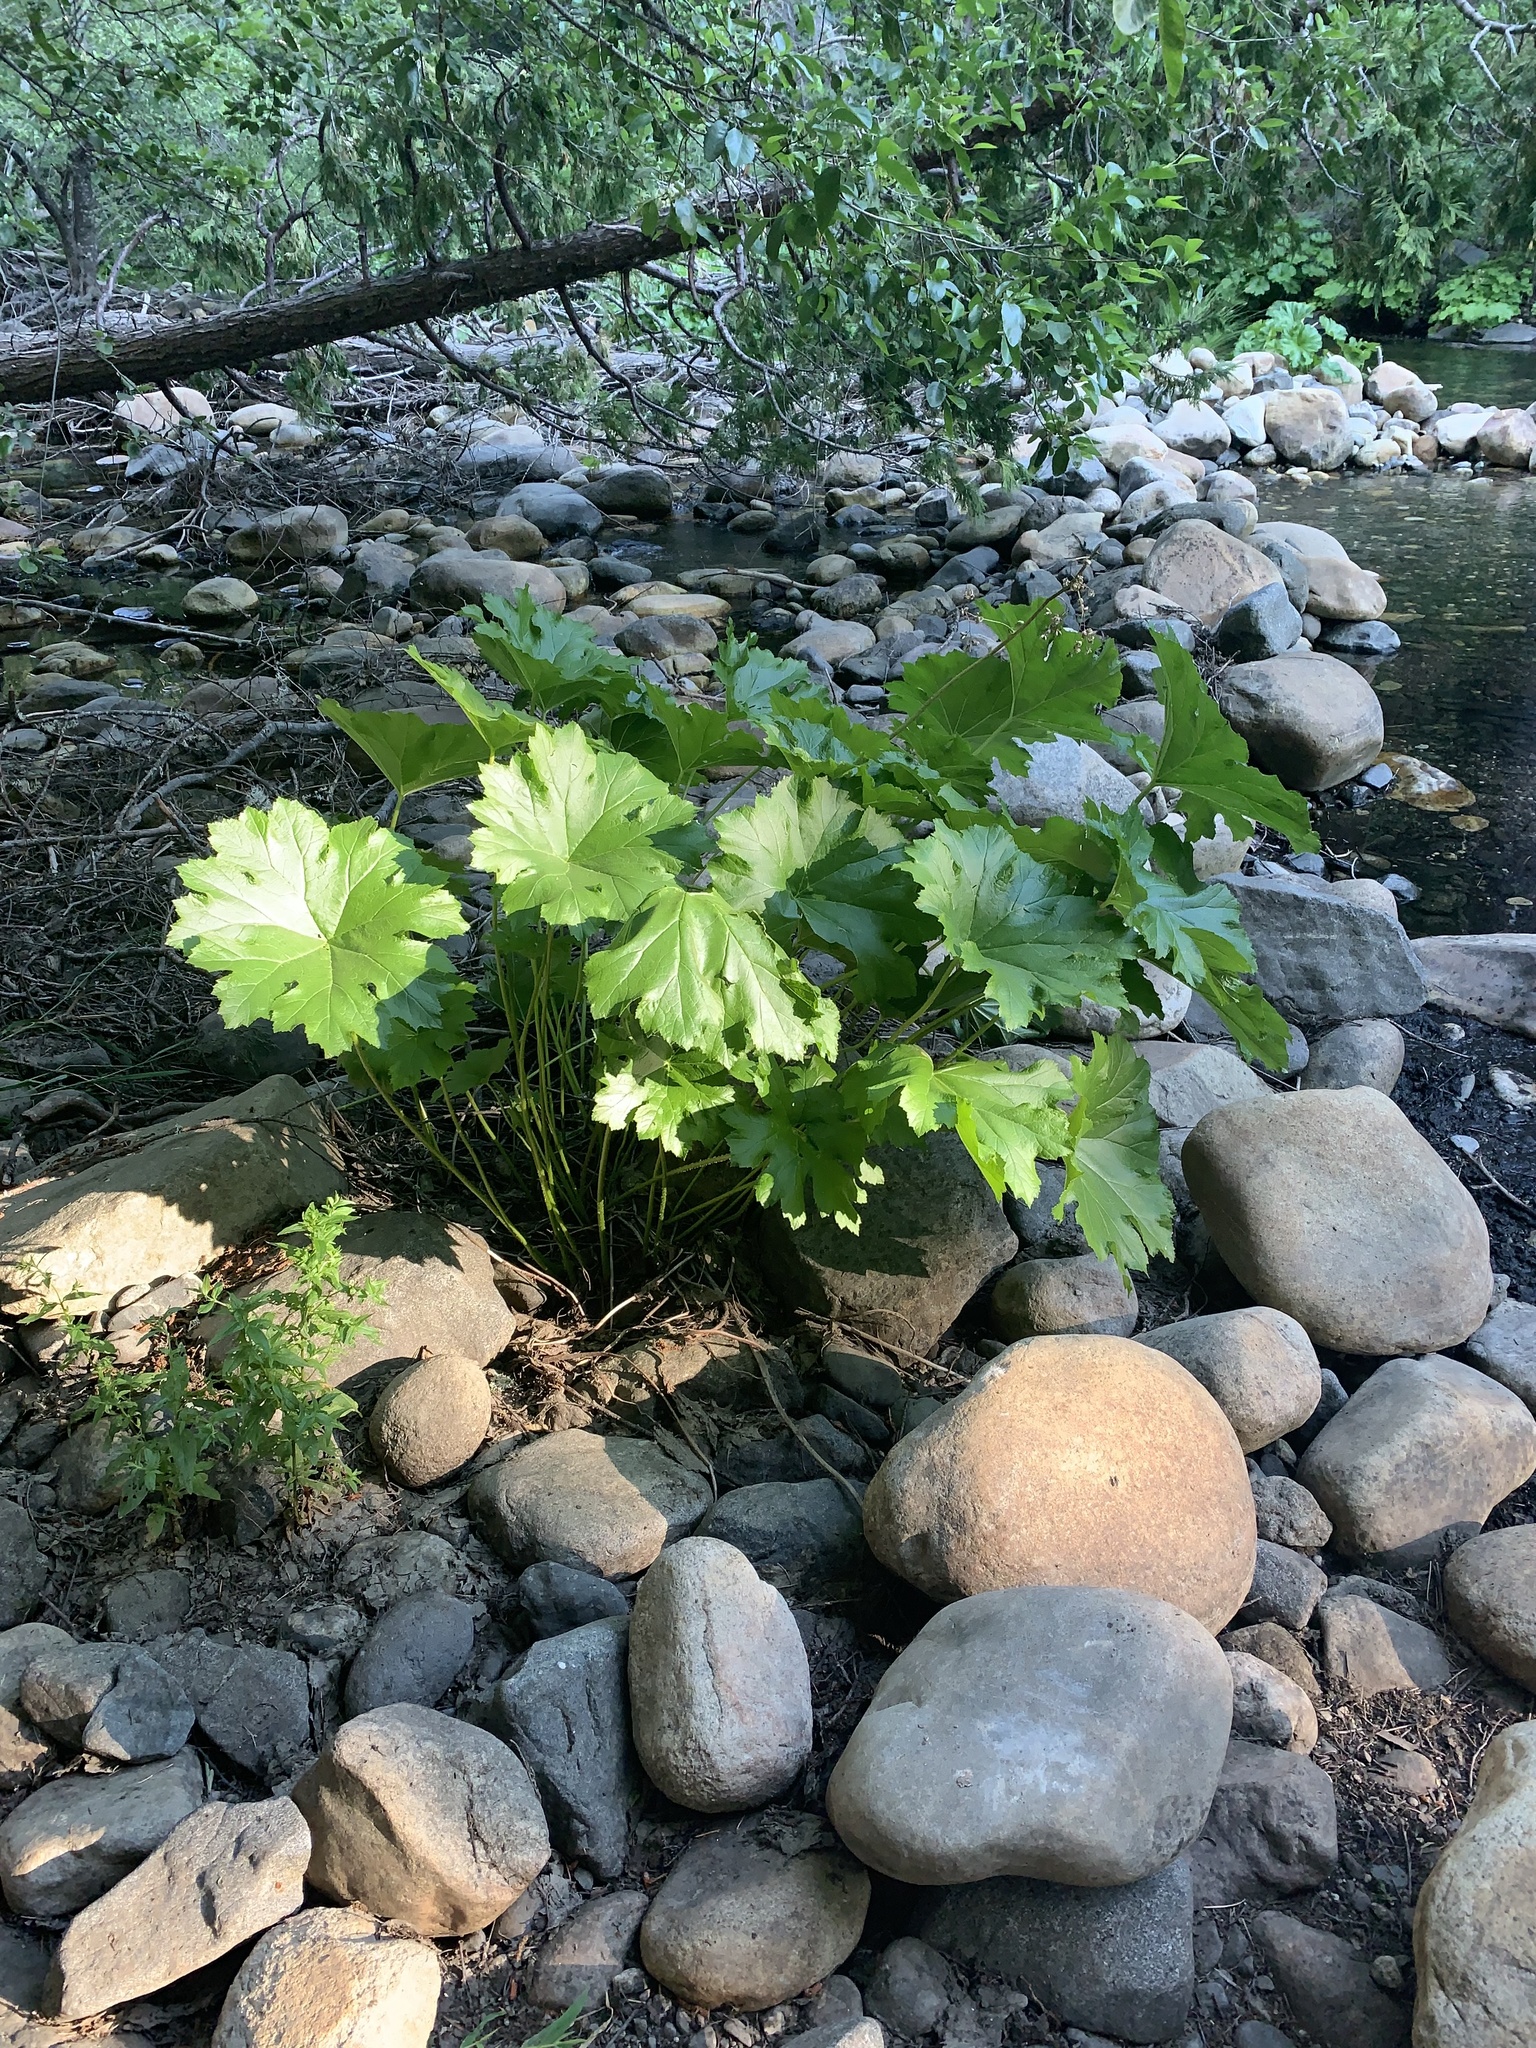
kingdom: Plantae
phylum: Tracheophyta
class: Magnoliopsida
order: Saxifragales
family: Saxifragaceae
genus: Darmera
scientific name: Darmera peltata
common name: Indian-rhubarb
